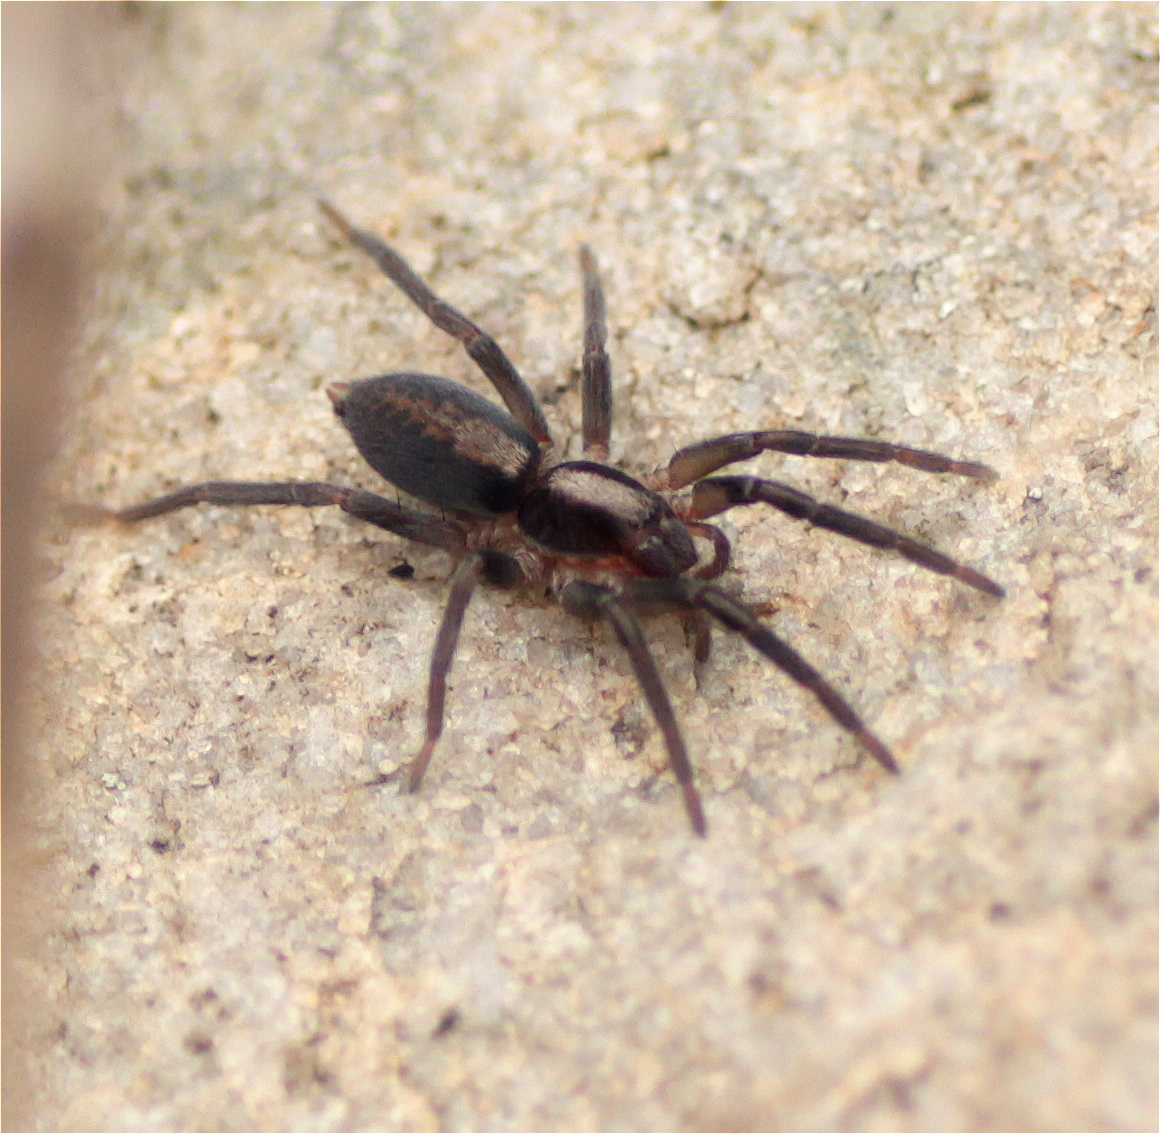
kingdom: Animalia
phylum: Arthropoda
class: Arachnida
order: Araneae
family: Miturgidae
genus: Teminius
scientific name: Teminius insularis
